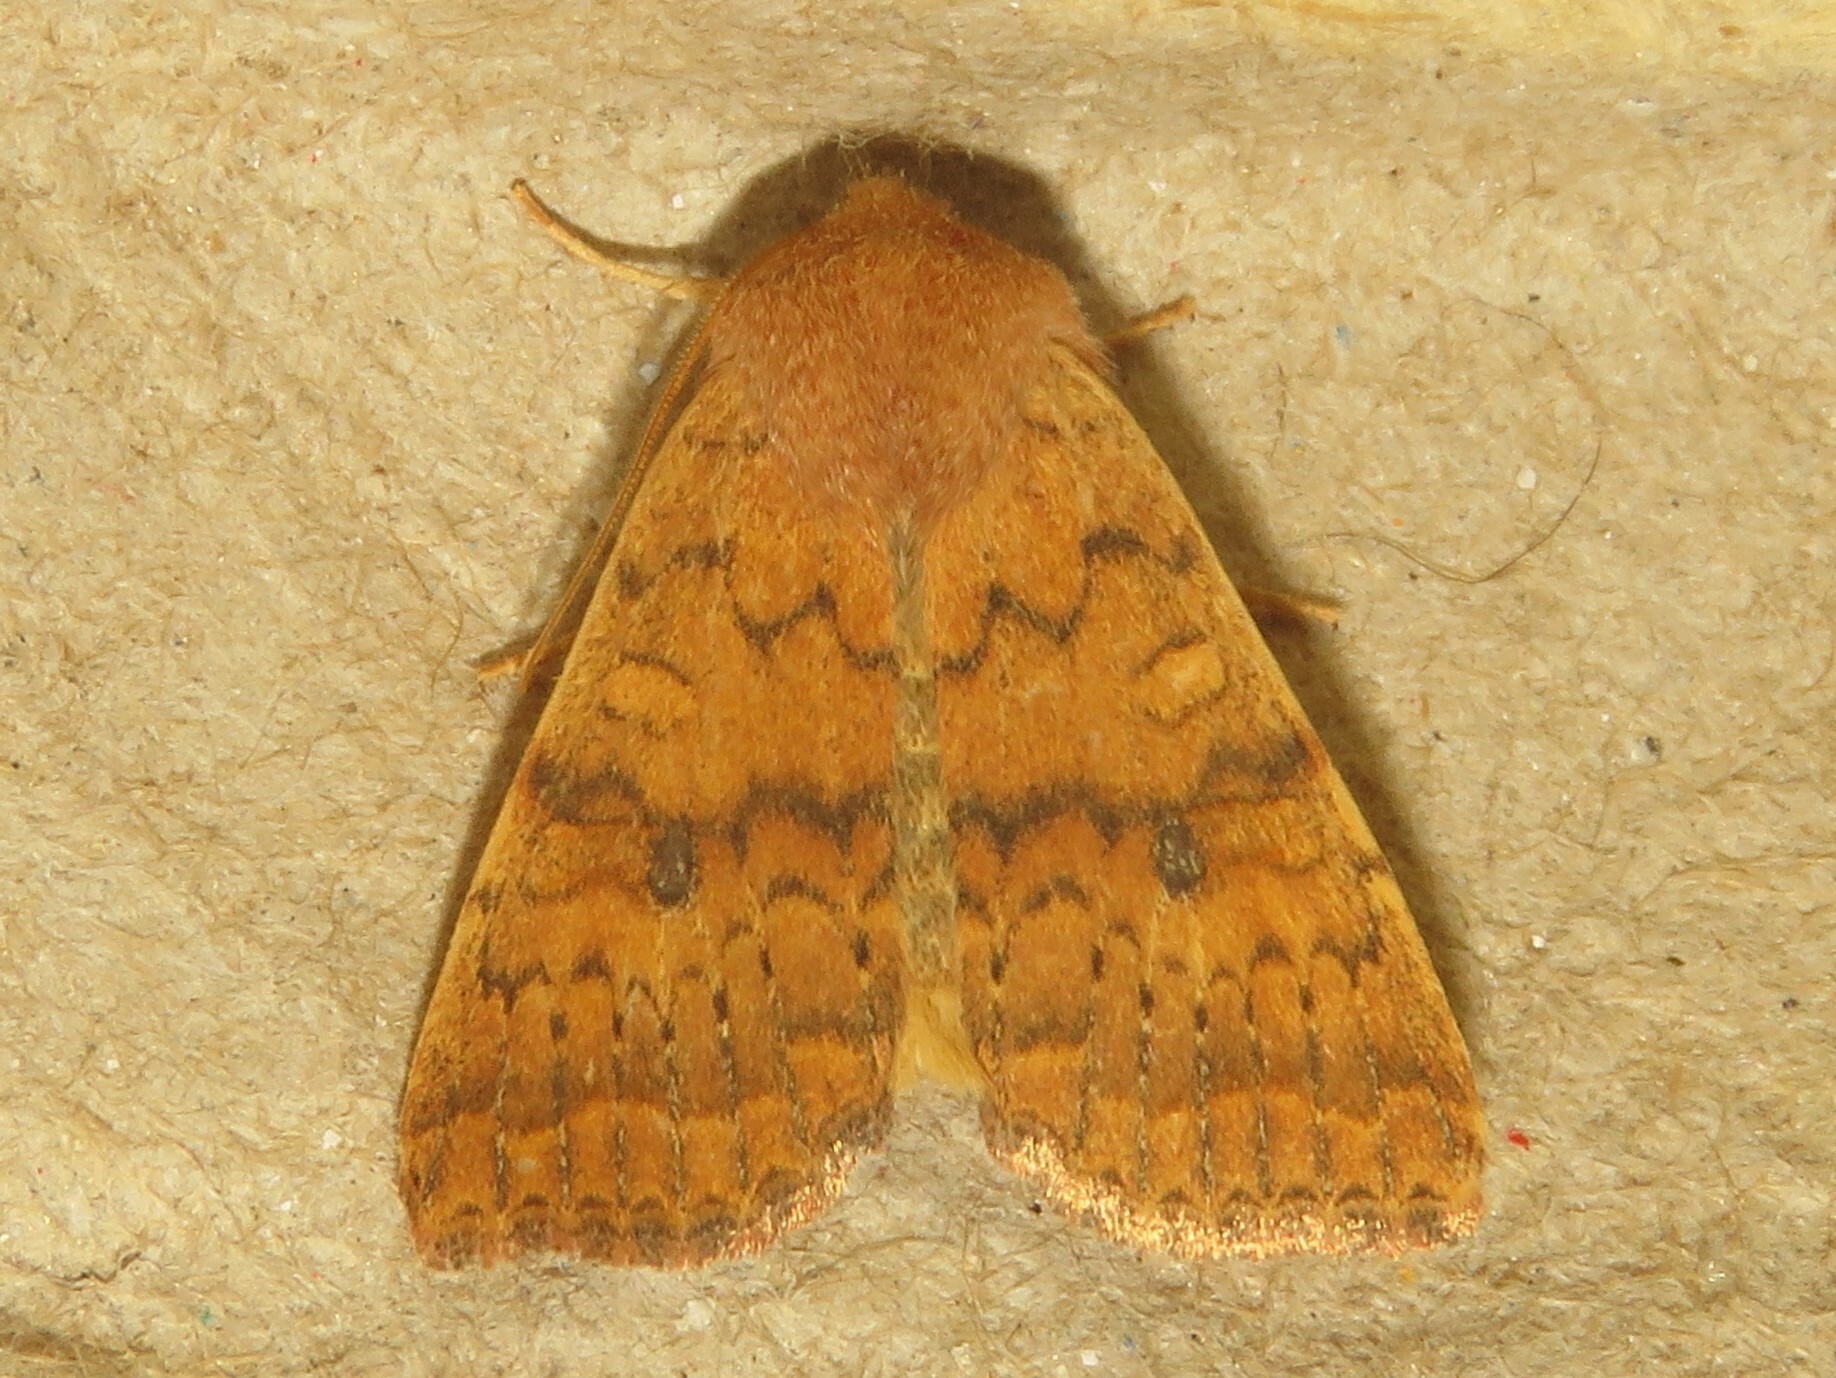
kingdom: Animalia
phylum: Arthropoda
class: Insecta
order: Lepidoptera
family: Noctuidae
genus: Agrochola
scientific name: Agrochola bicolorago
